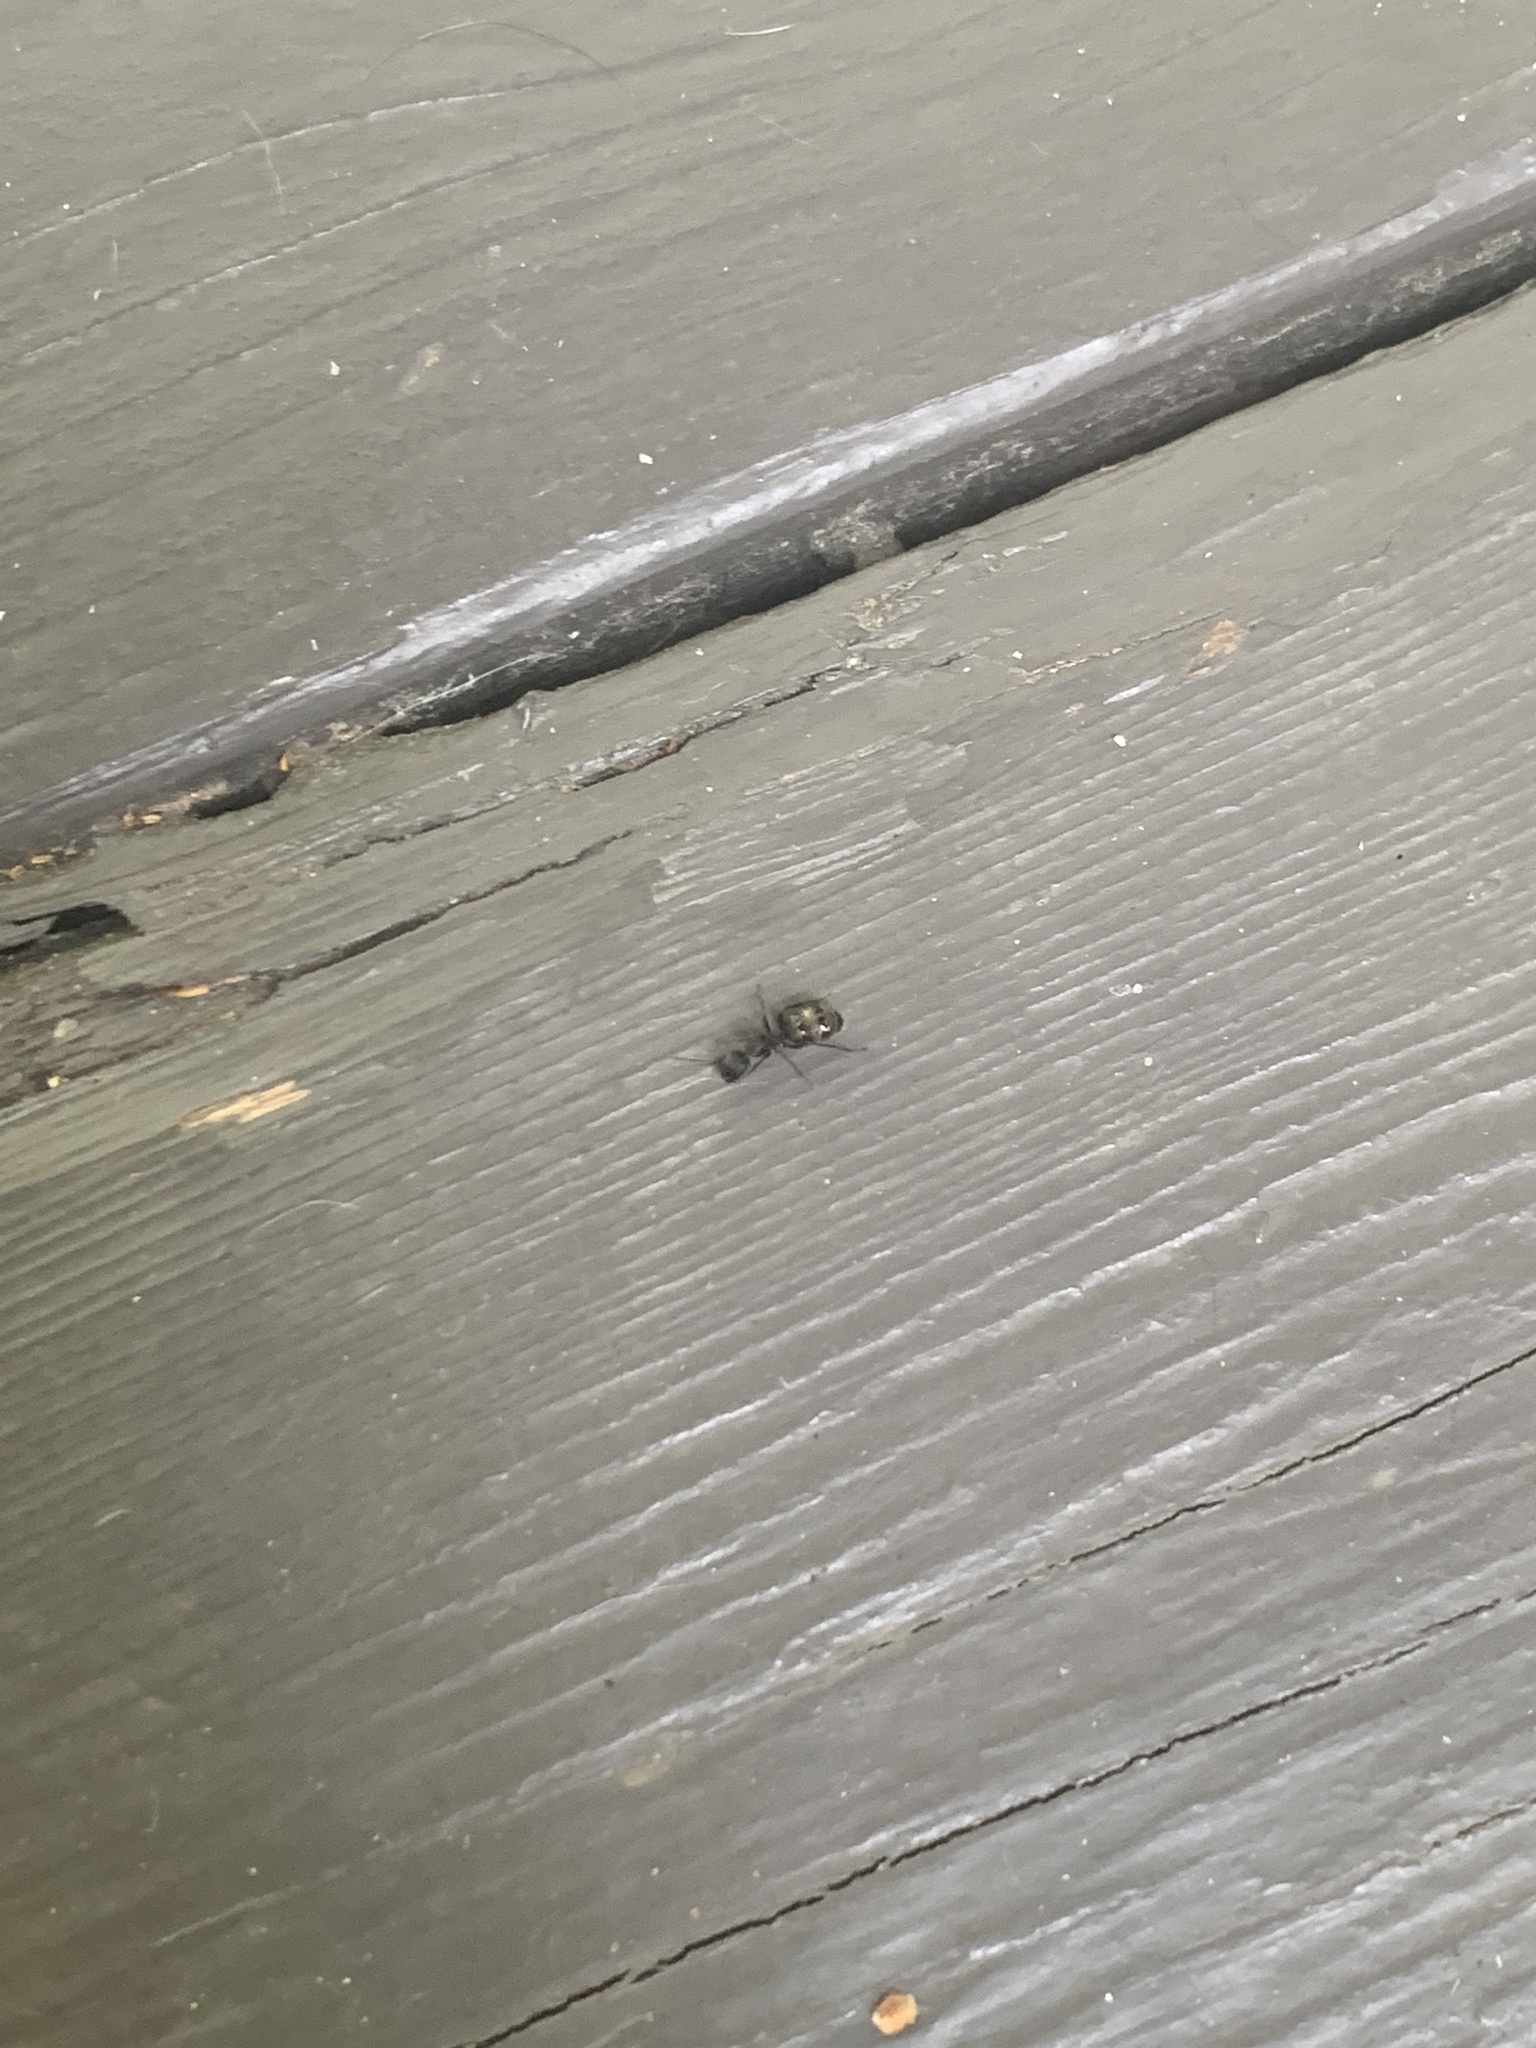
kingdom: Animalia
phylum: Arthropoda
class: Insecta
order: Hymenoptera
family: Formicidae
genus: Camponotus
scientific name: Camponotus pennsylvanicus
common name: Black carpenter ant
